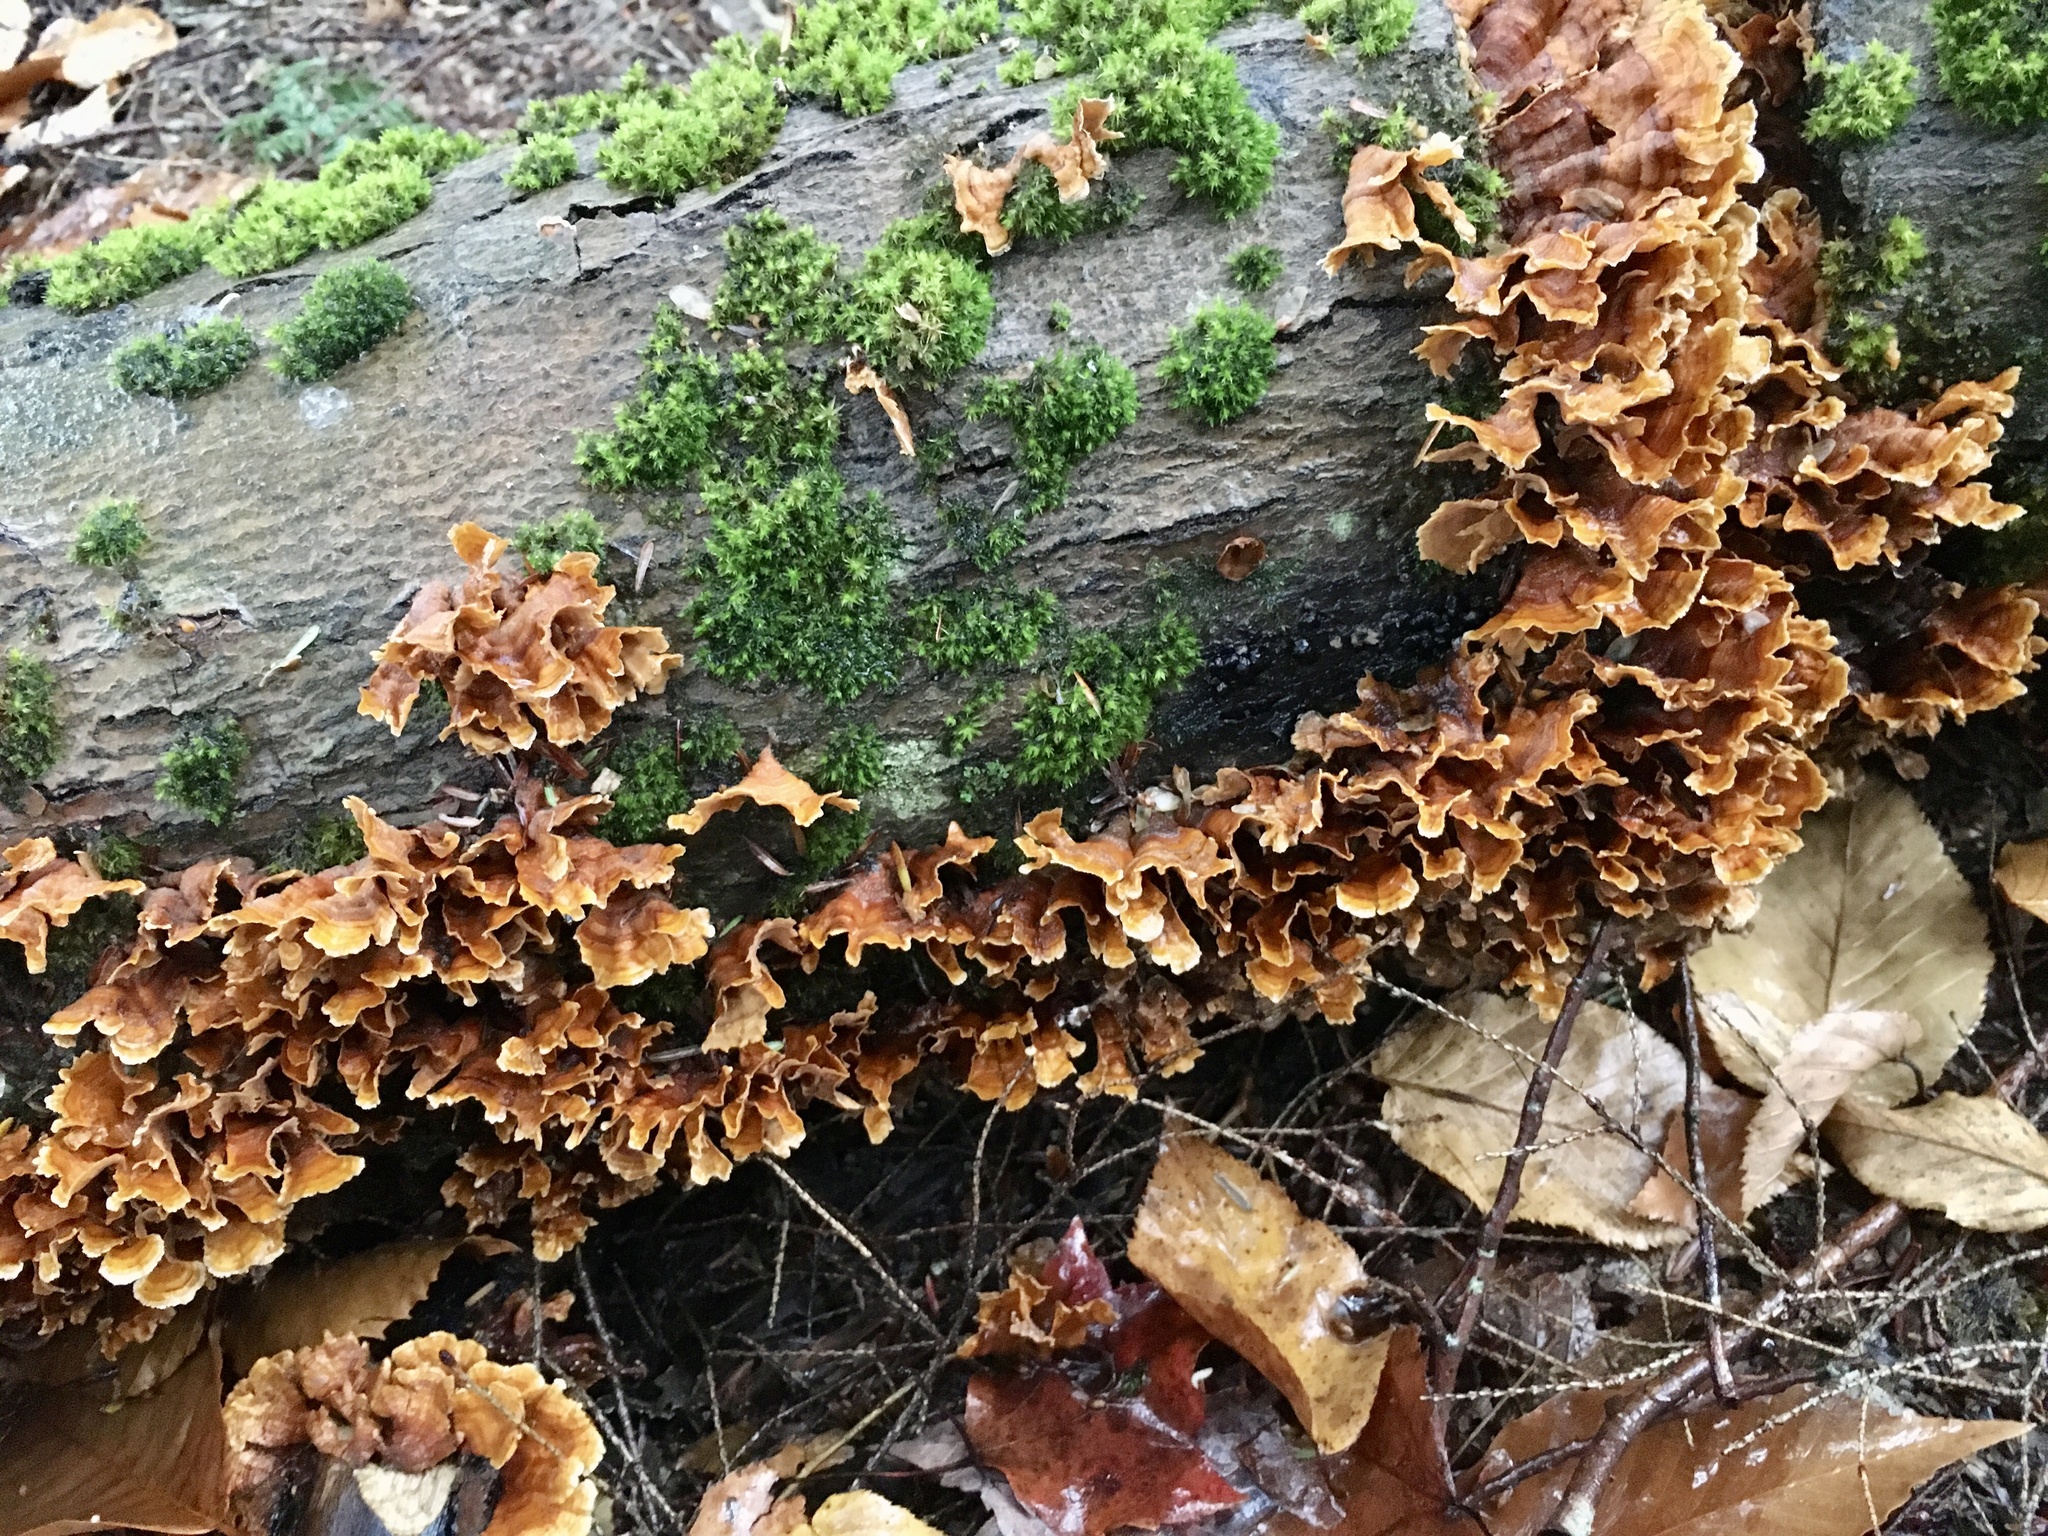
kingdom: Fungi
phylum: Basidiomycota
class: Agaricomycetes
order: Russulales
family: Stereaceae
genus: Stereum
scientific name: Stereum complicatum
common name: Crowded parchment
